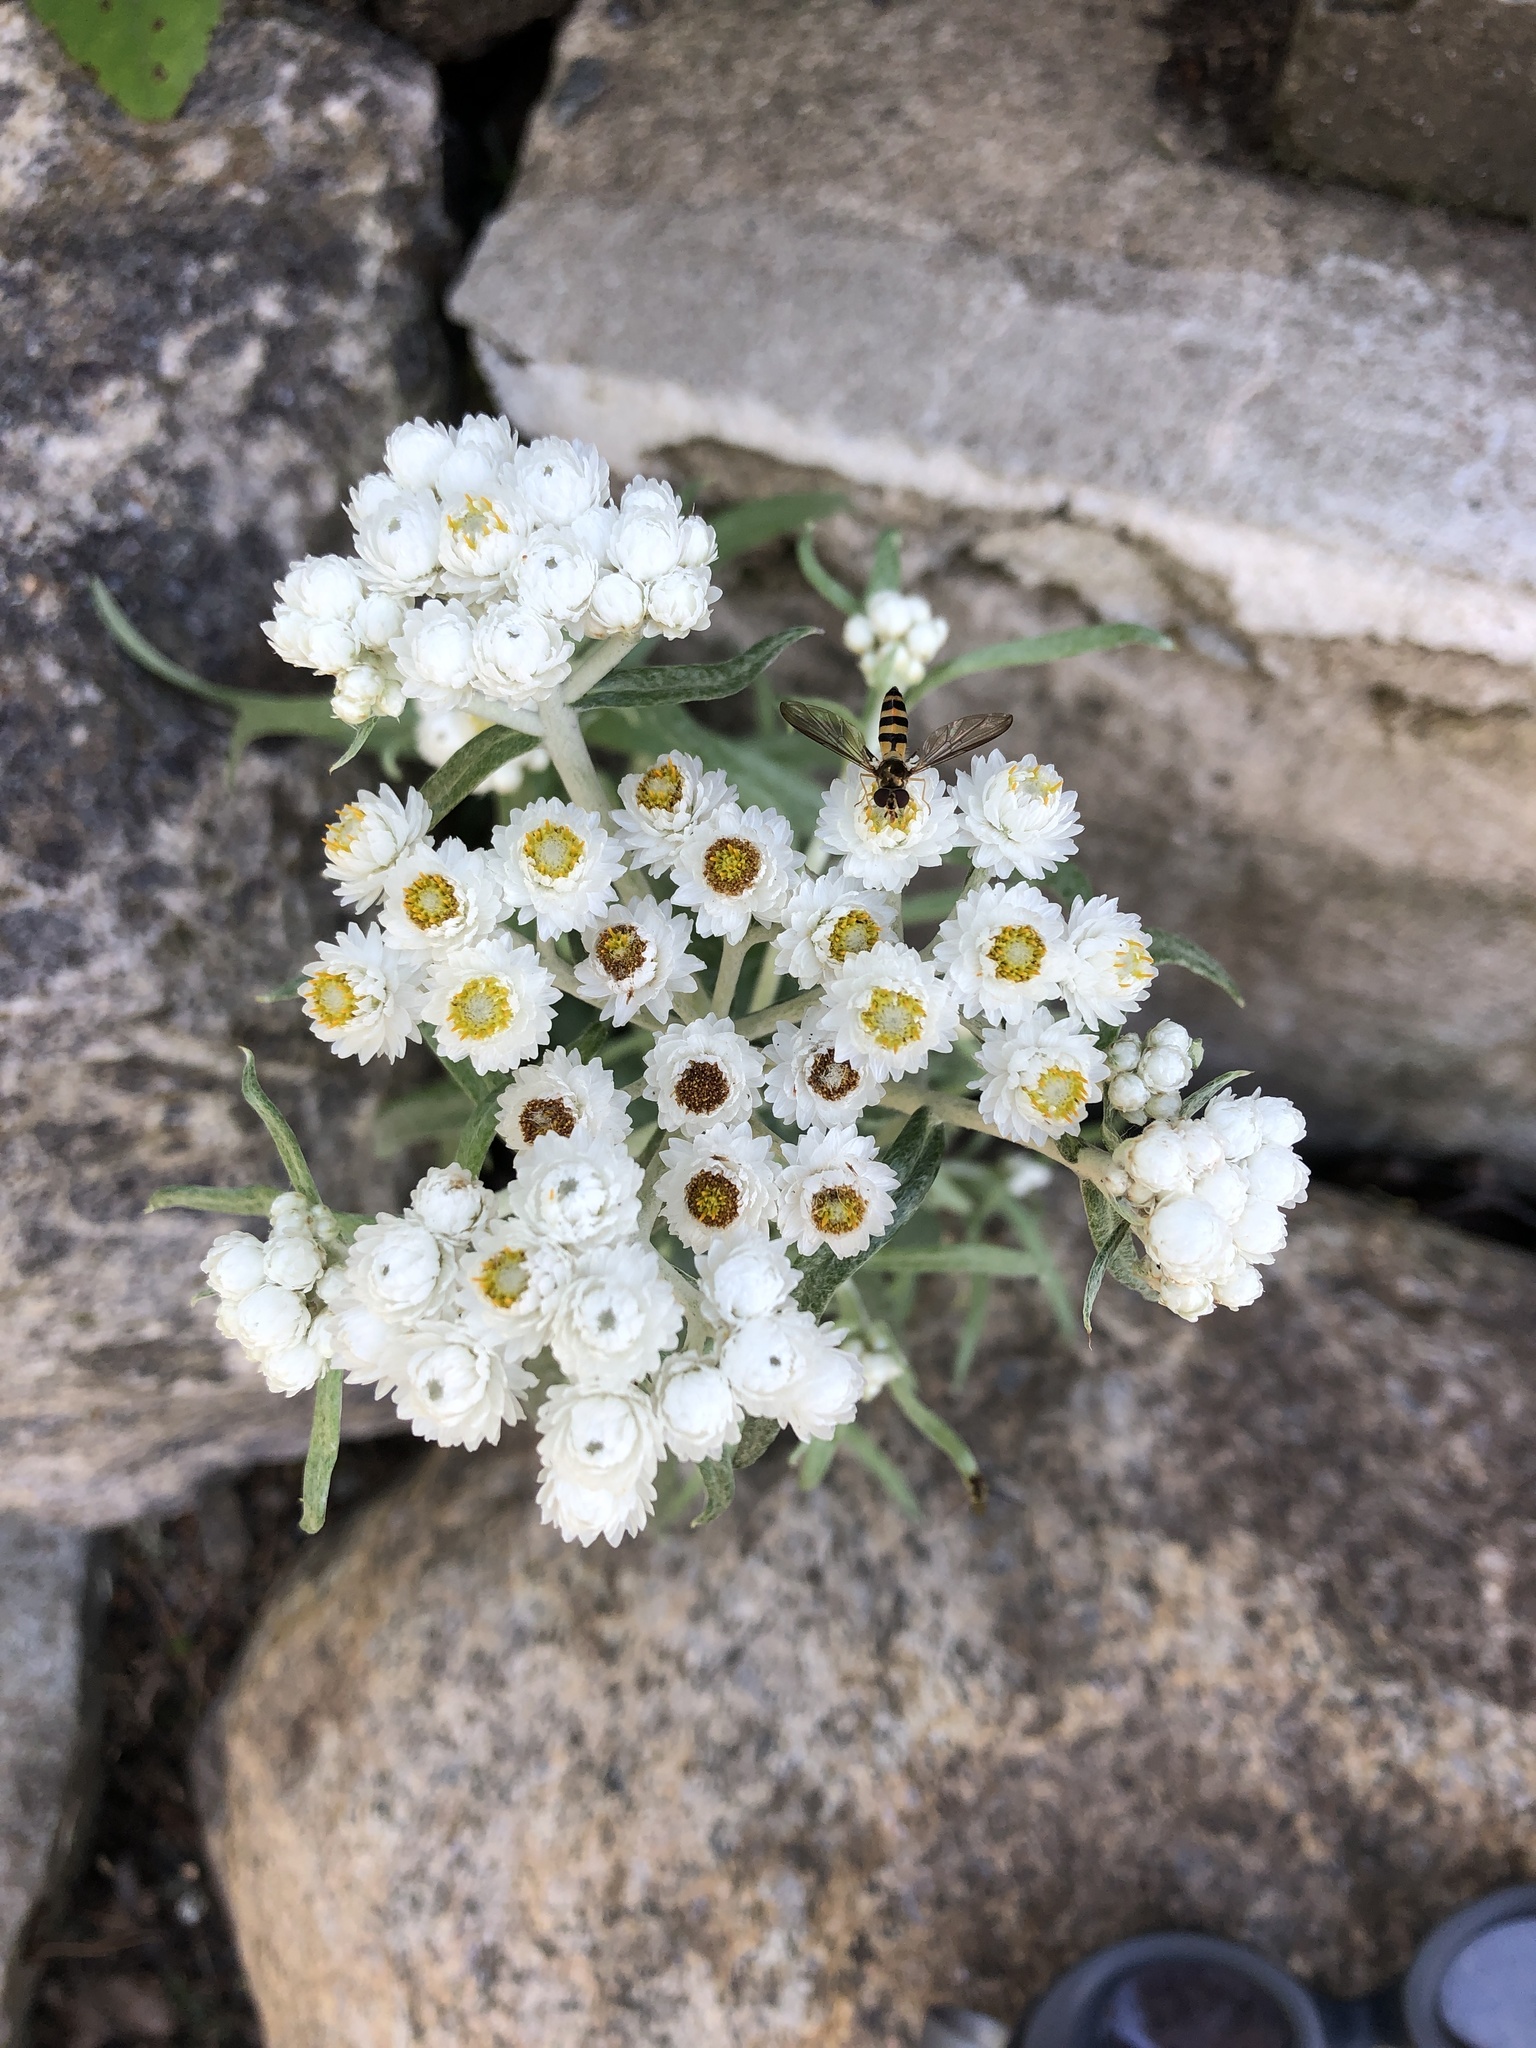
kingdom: Plantae
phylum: Tracheophyta
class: Magnoliopsida
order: Asterales
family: Asteraceae
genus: Anaphalis
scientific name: Anaphalis margaritacea
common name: Pearly everlasting
